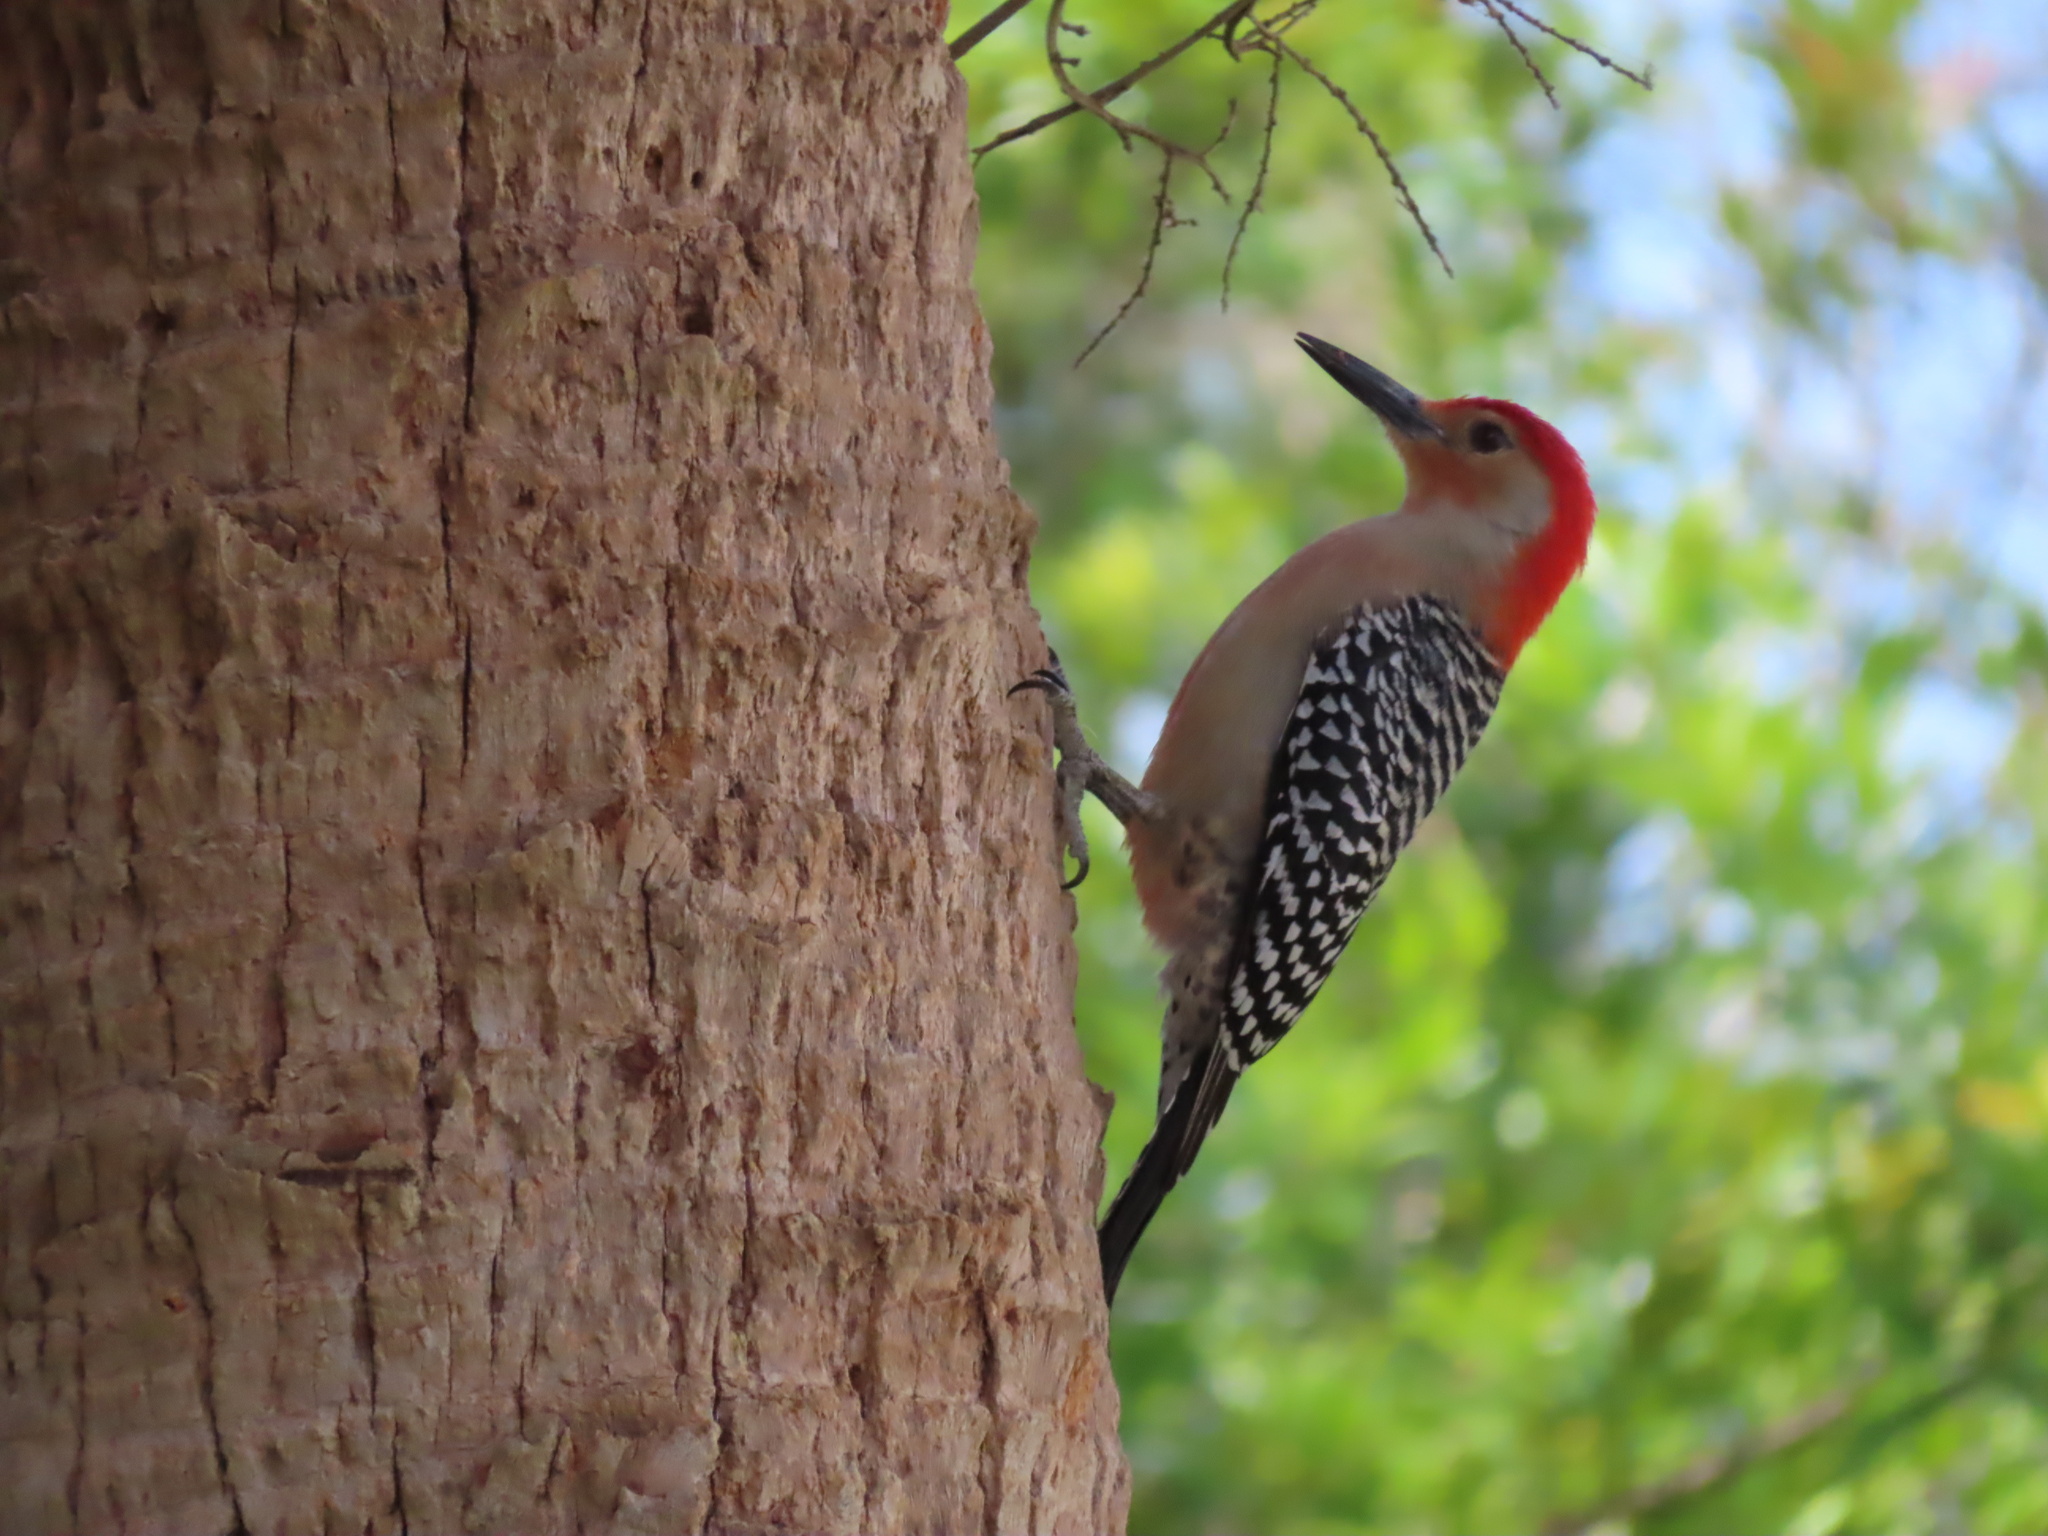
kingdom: Animalia
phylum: Chordata
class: Aves
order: Piciformes
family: Picidae
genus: Melanerpes
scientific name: Melanerpes carolinus
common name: Red-bellied woodpecker
